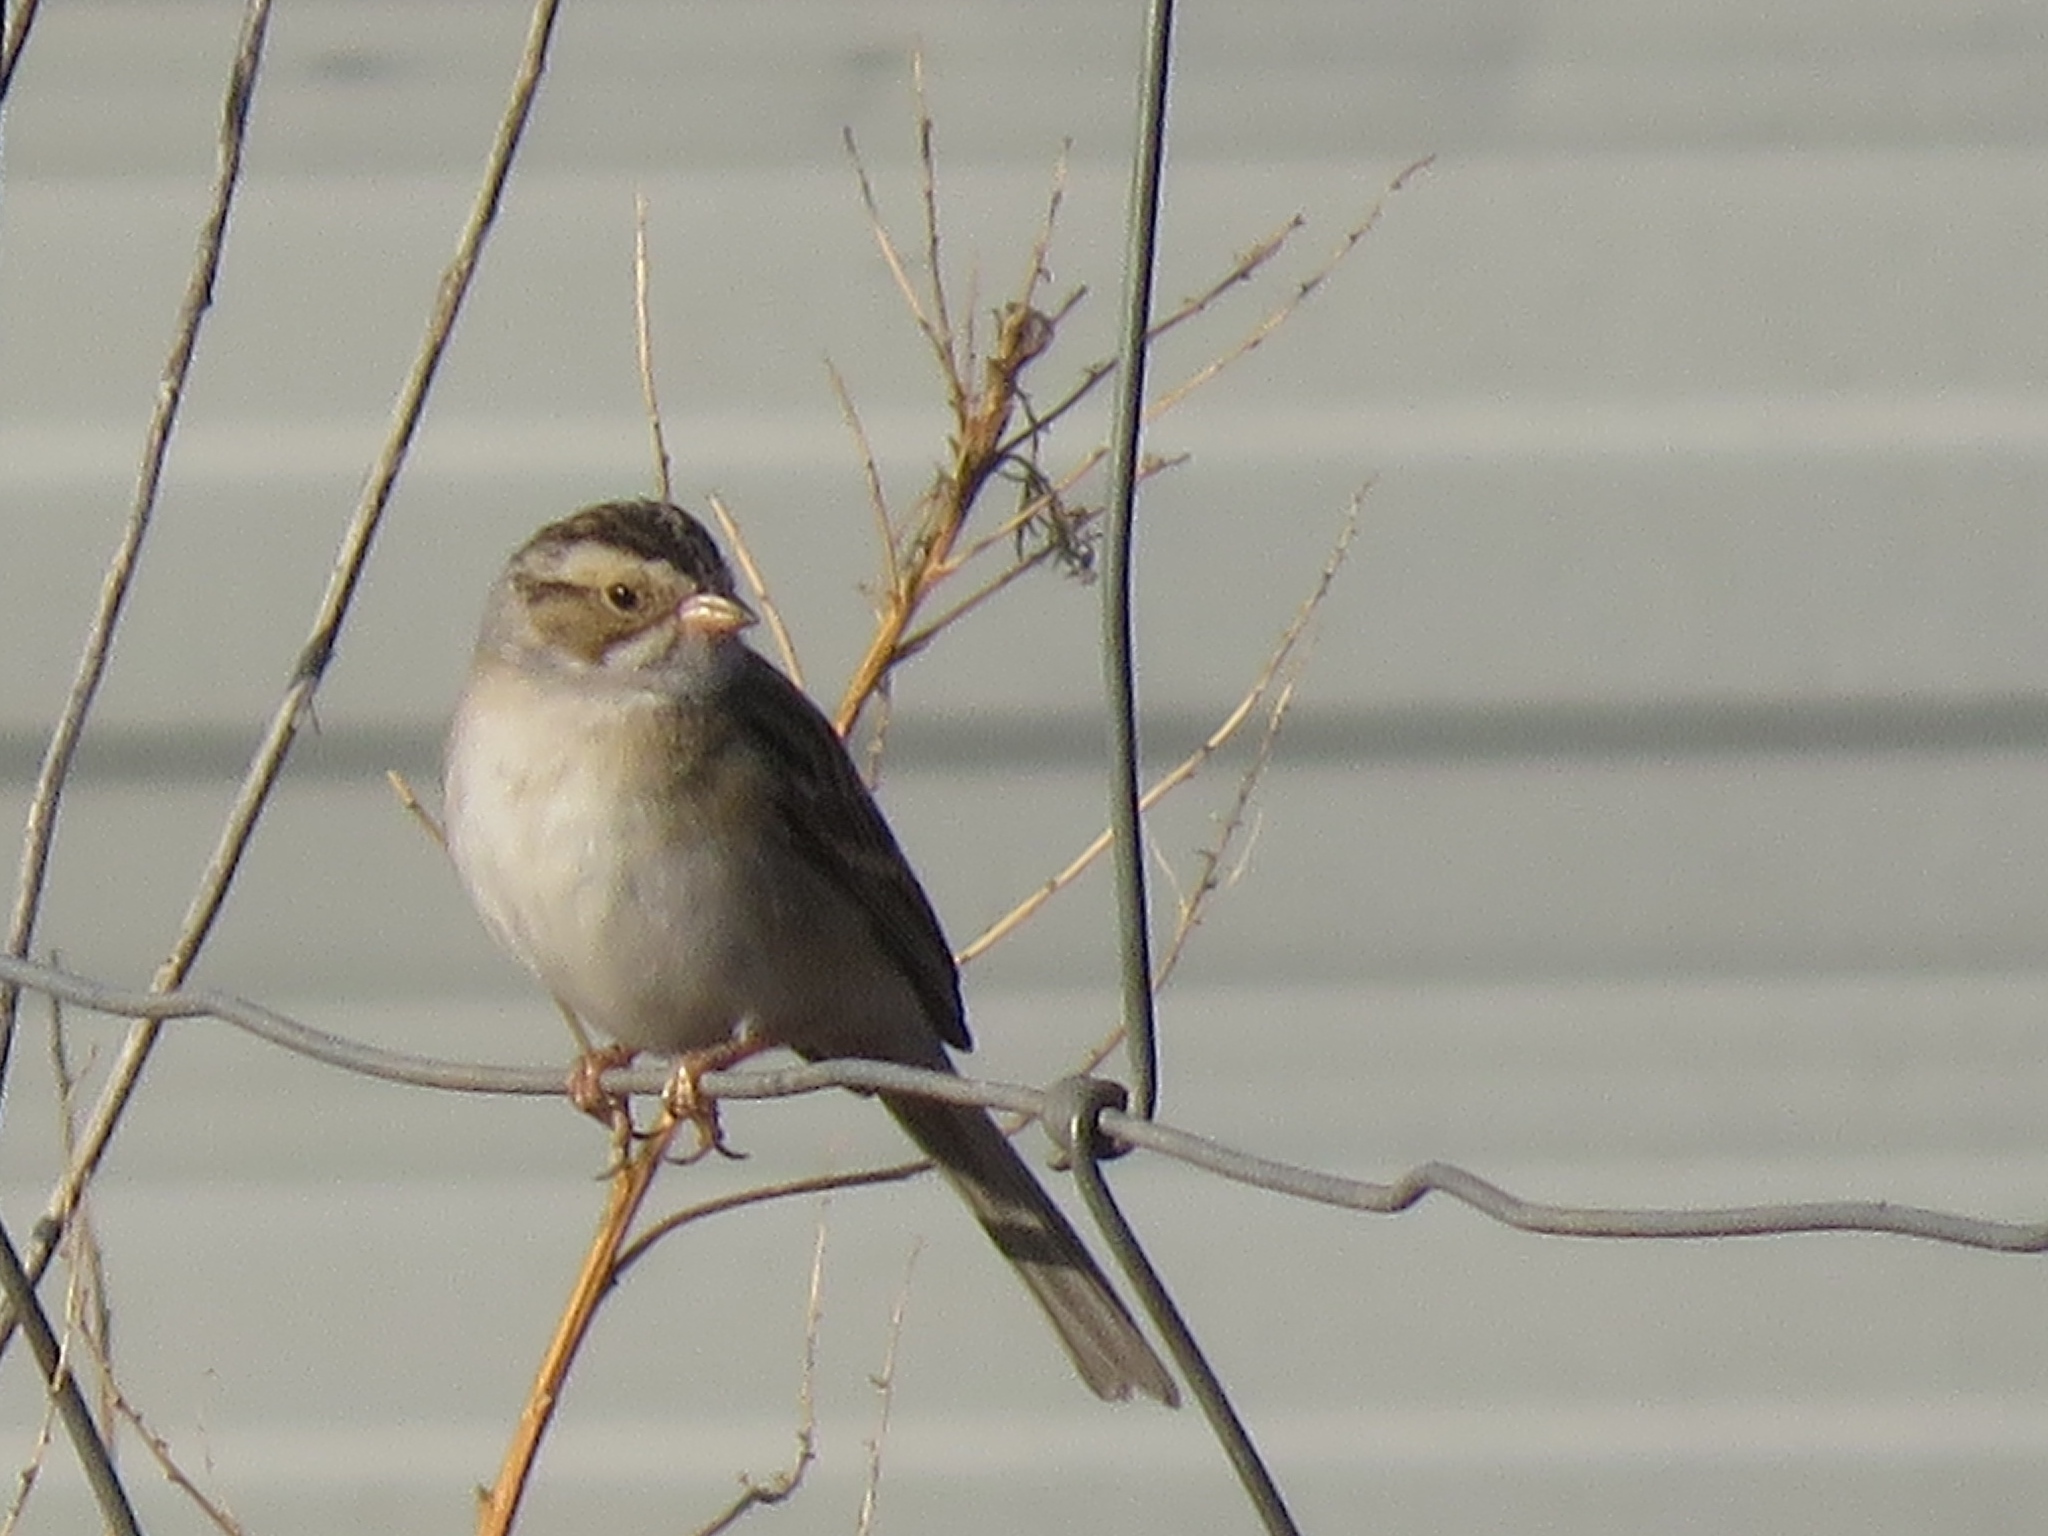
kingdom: Animalia
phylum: Chordata
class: Aves
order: Passeriformes
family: Passerellidae
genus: Spizella
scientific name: Spizella pallida
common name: Clay-colored sparrow
